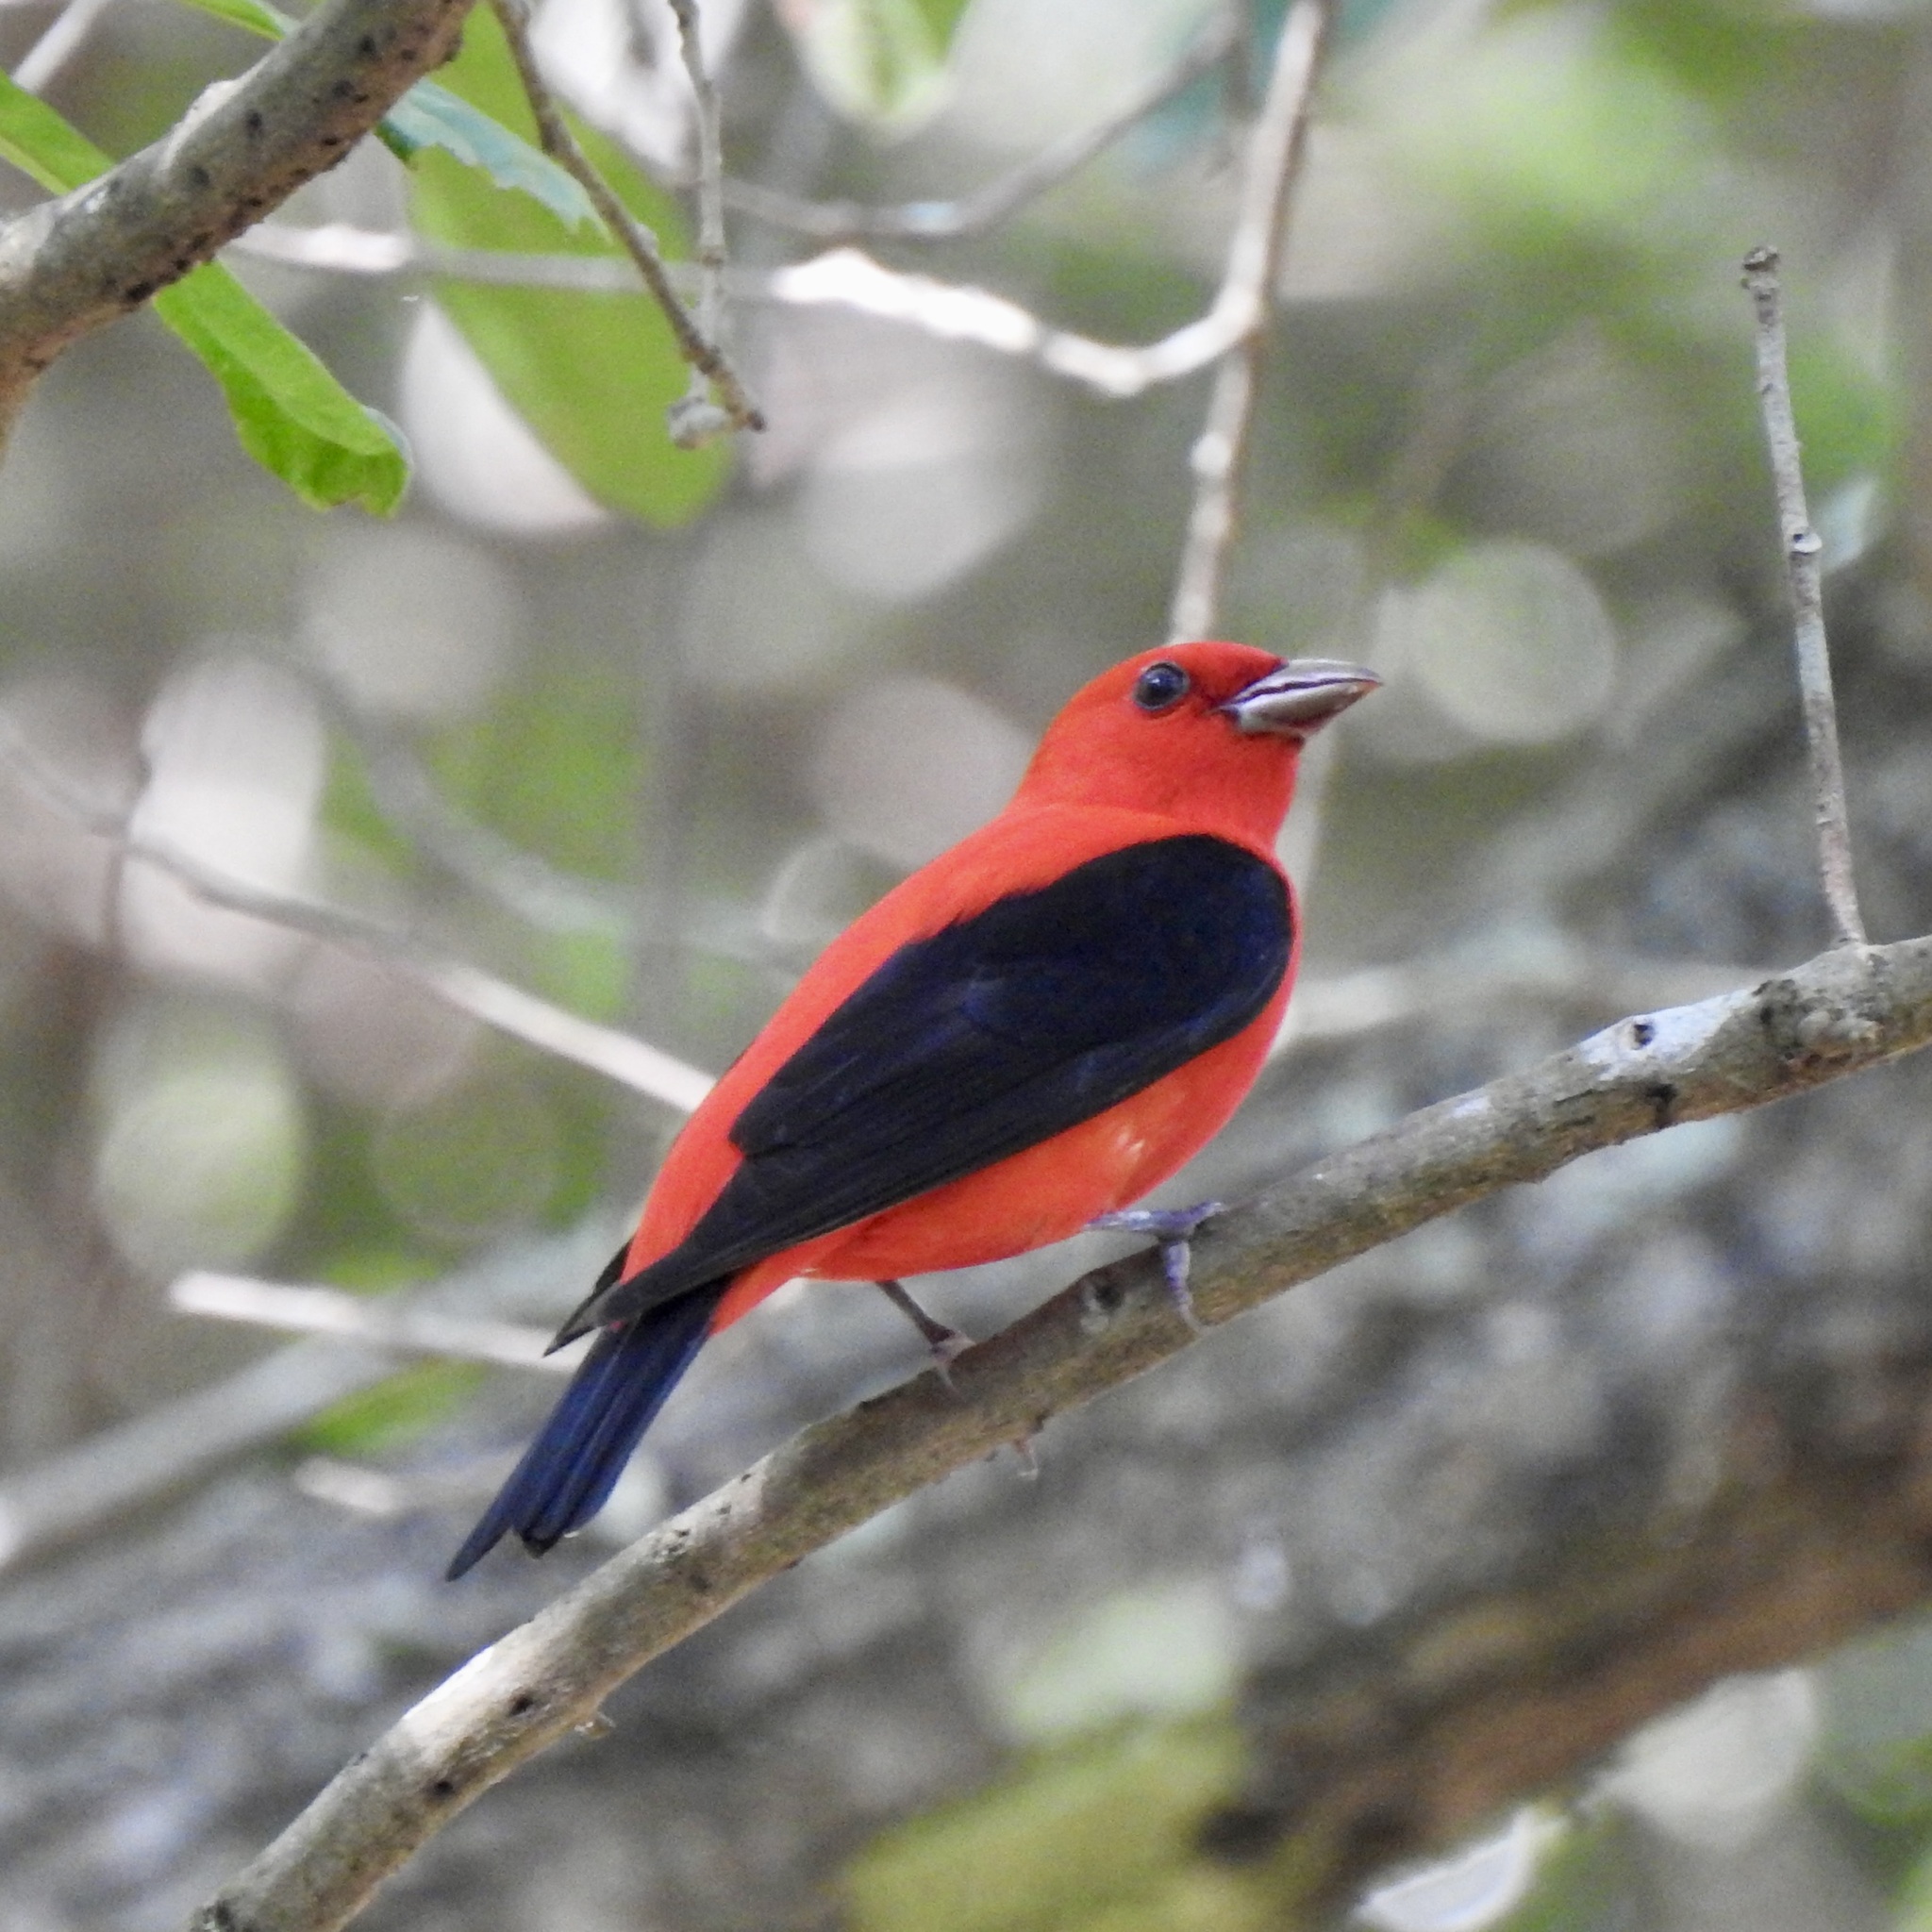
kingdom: Animalia
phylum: Chordata
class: Aves
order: Passeriformes
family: Cardinalidae
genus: Piranga
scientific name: Piranga olivacea
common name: Scarlet tanager
